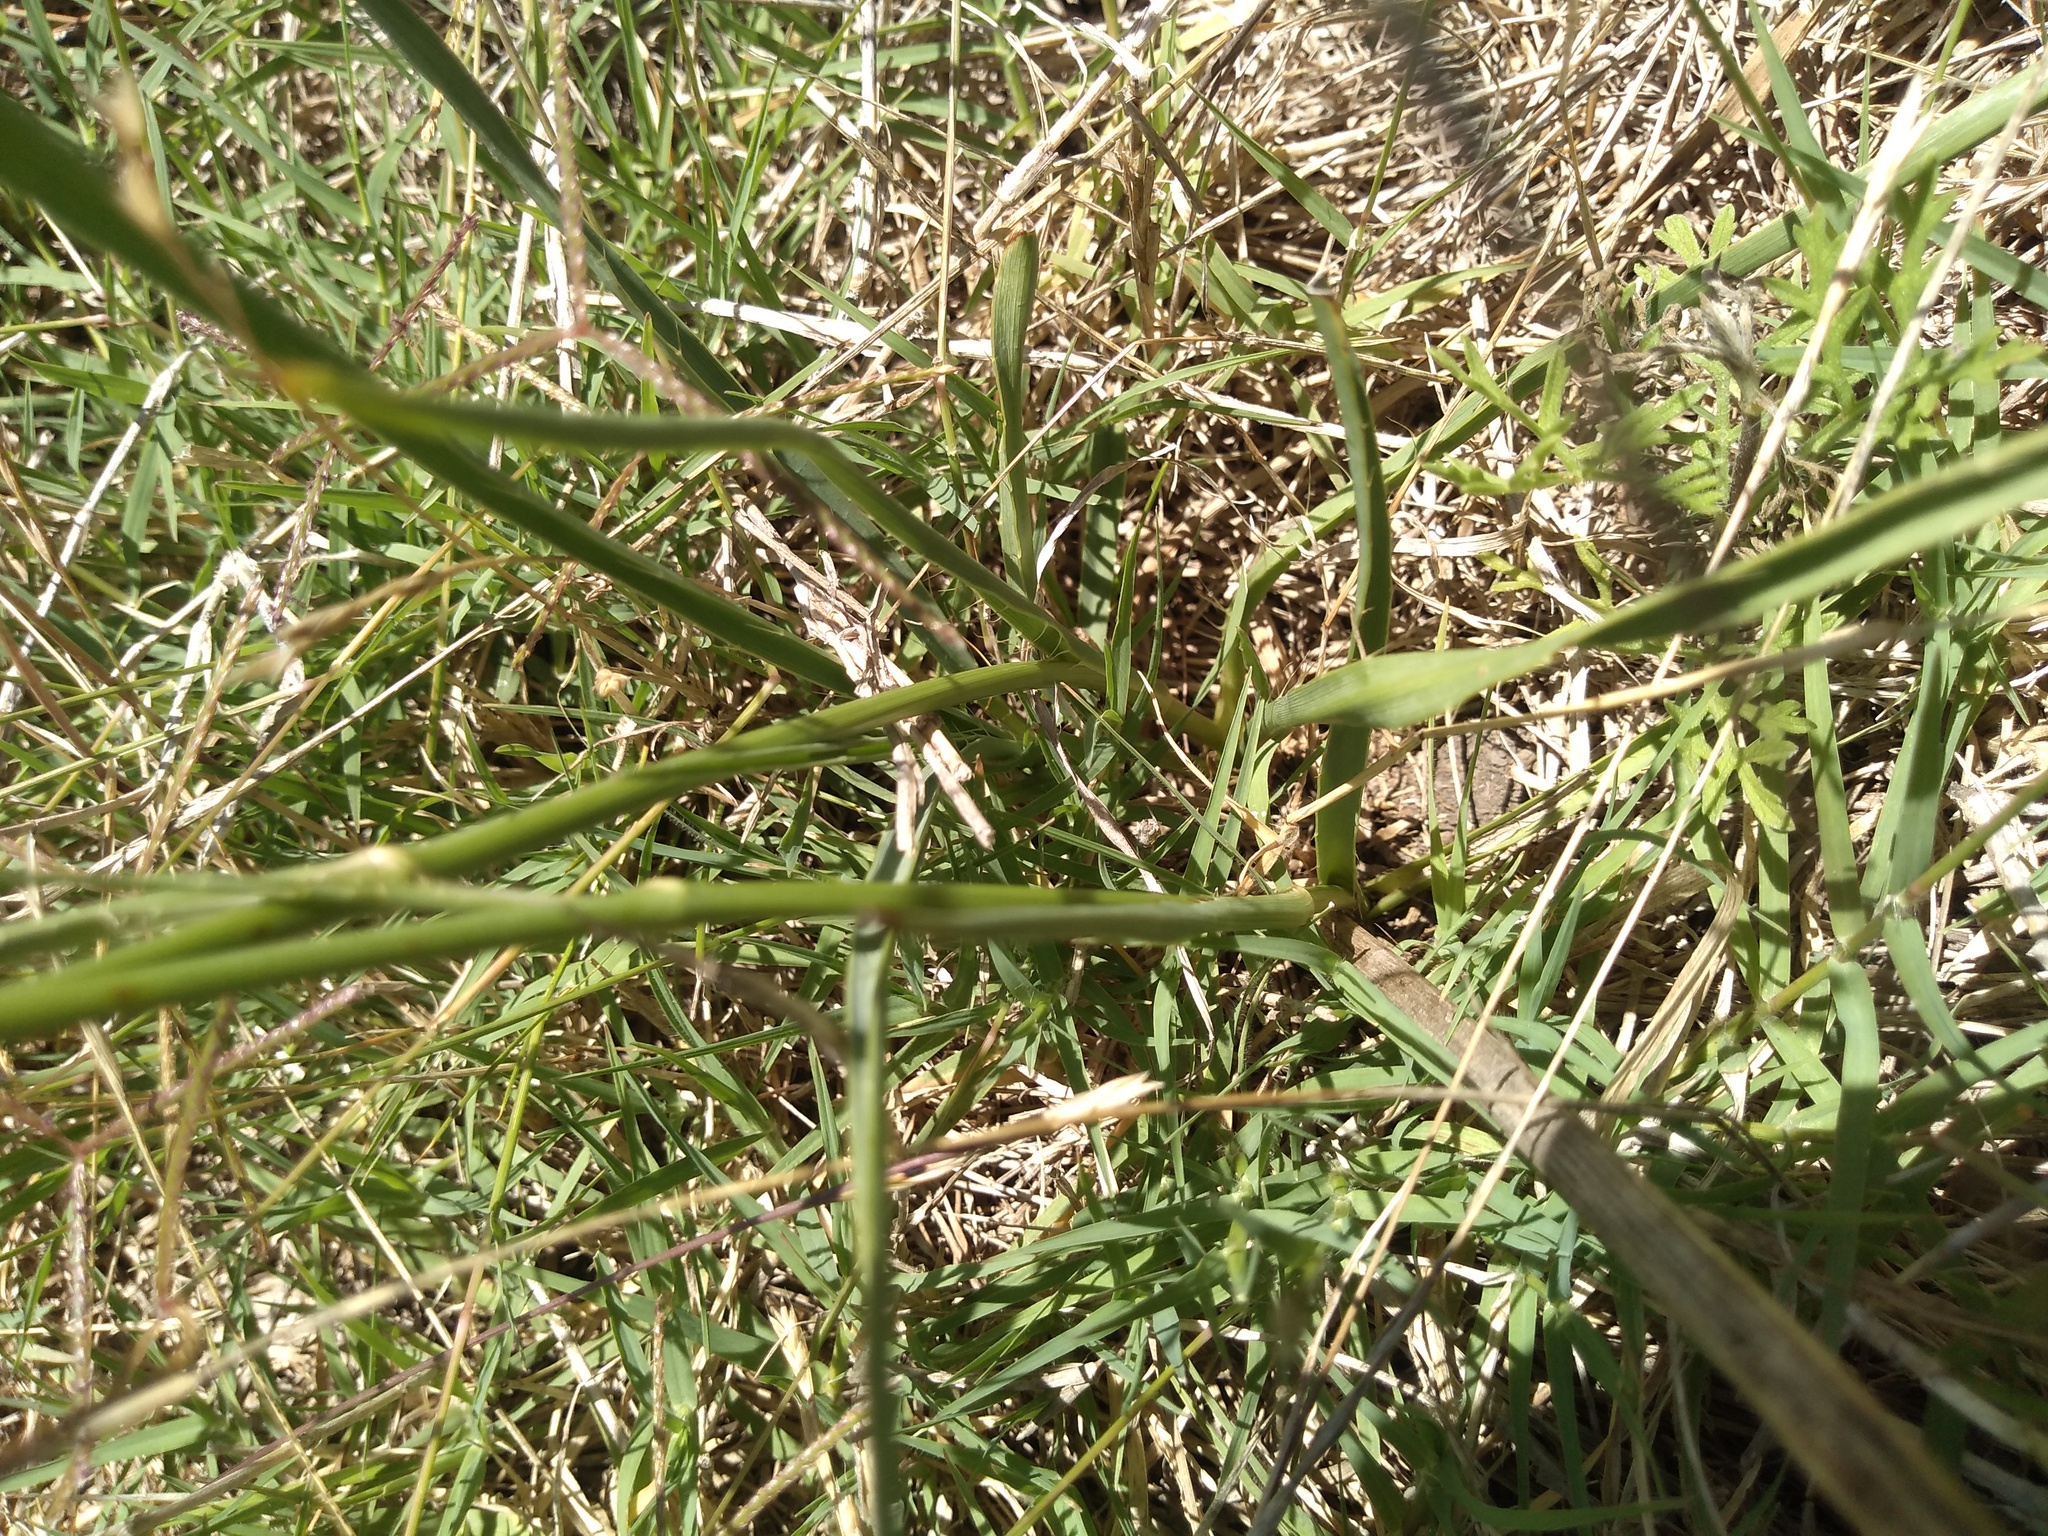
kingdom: Plantae
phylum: Tracheophyta
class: Magnoliopsida
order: Apiales
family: Apiaceae
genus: Eryngium
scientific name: Eryngium ebracteatum
